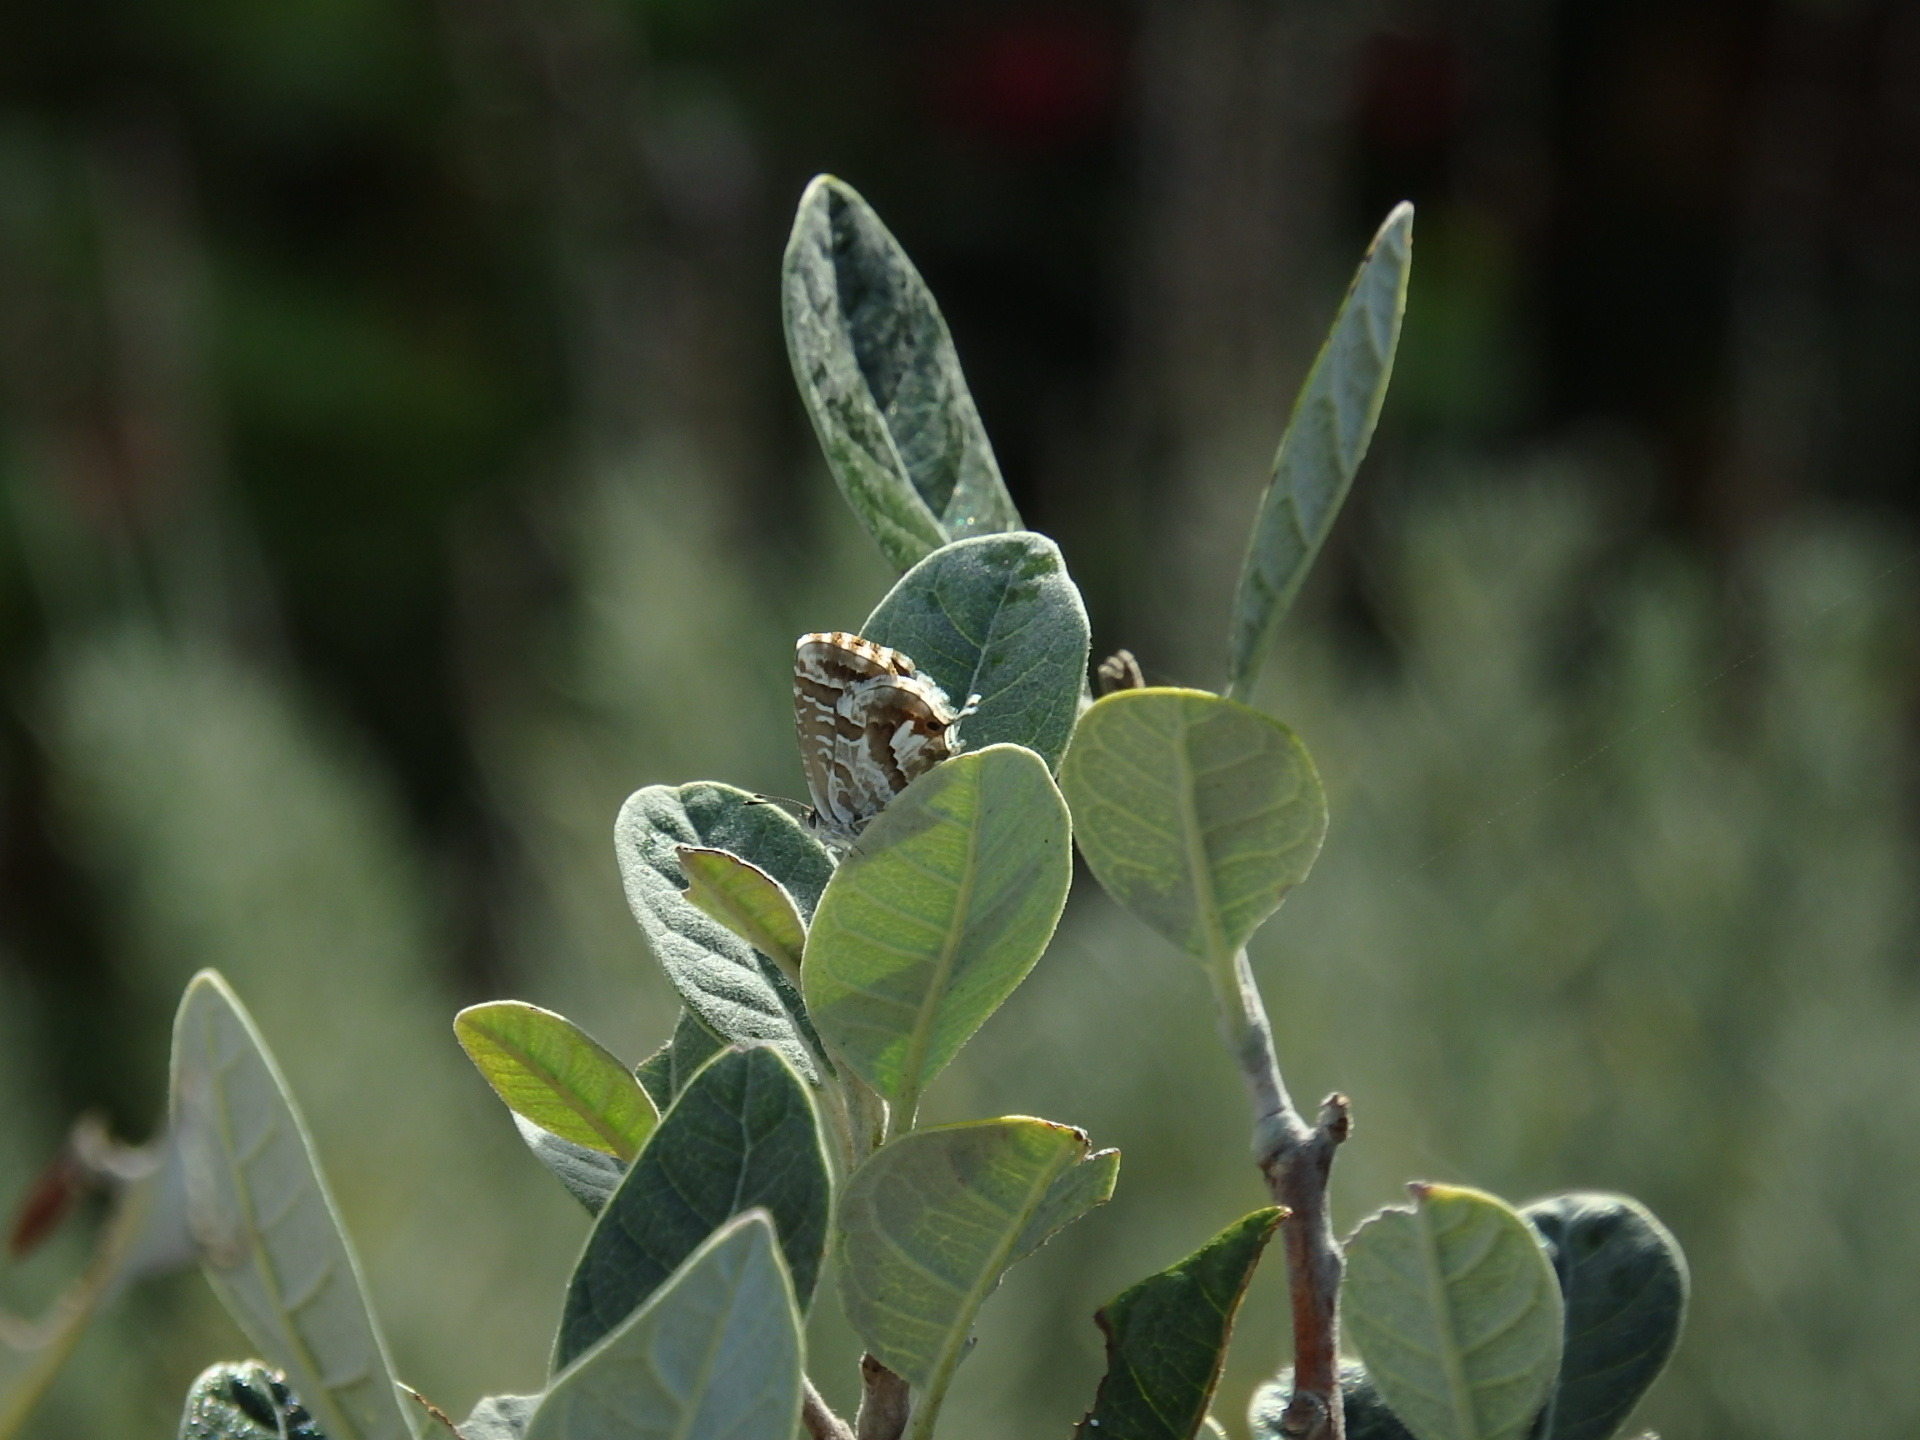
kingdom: Animalia
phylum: Arthropoda
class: Insecta
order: Lepidoptera
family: Lycaenidae
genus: Cacyreus
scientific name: Cacyreus marshalli
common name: Geranium bronze
